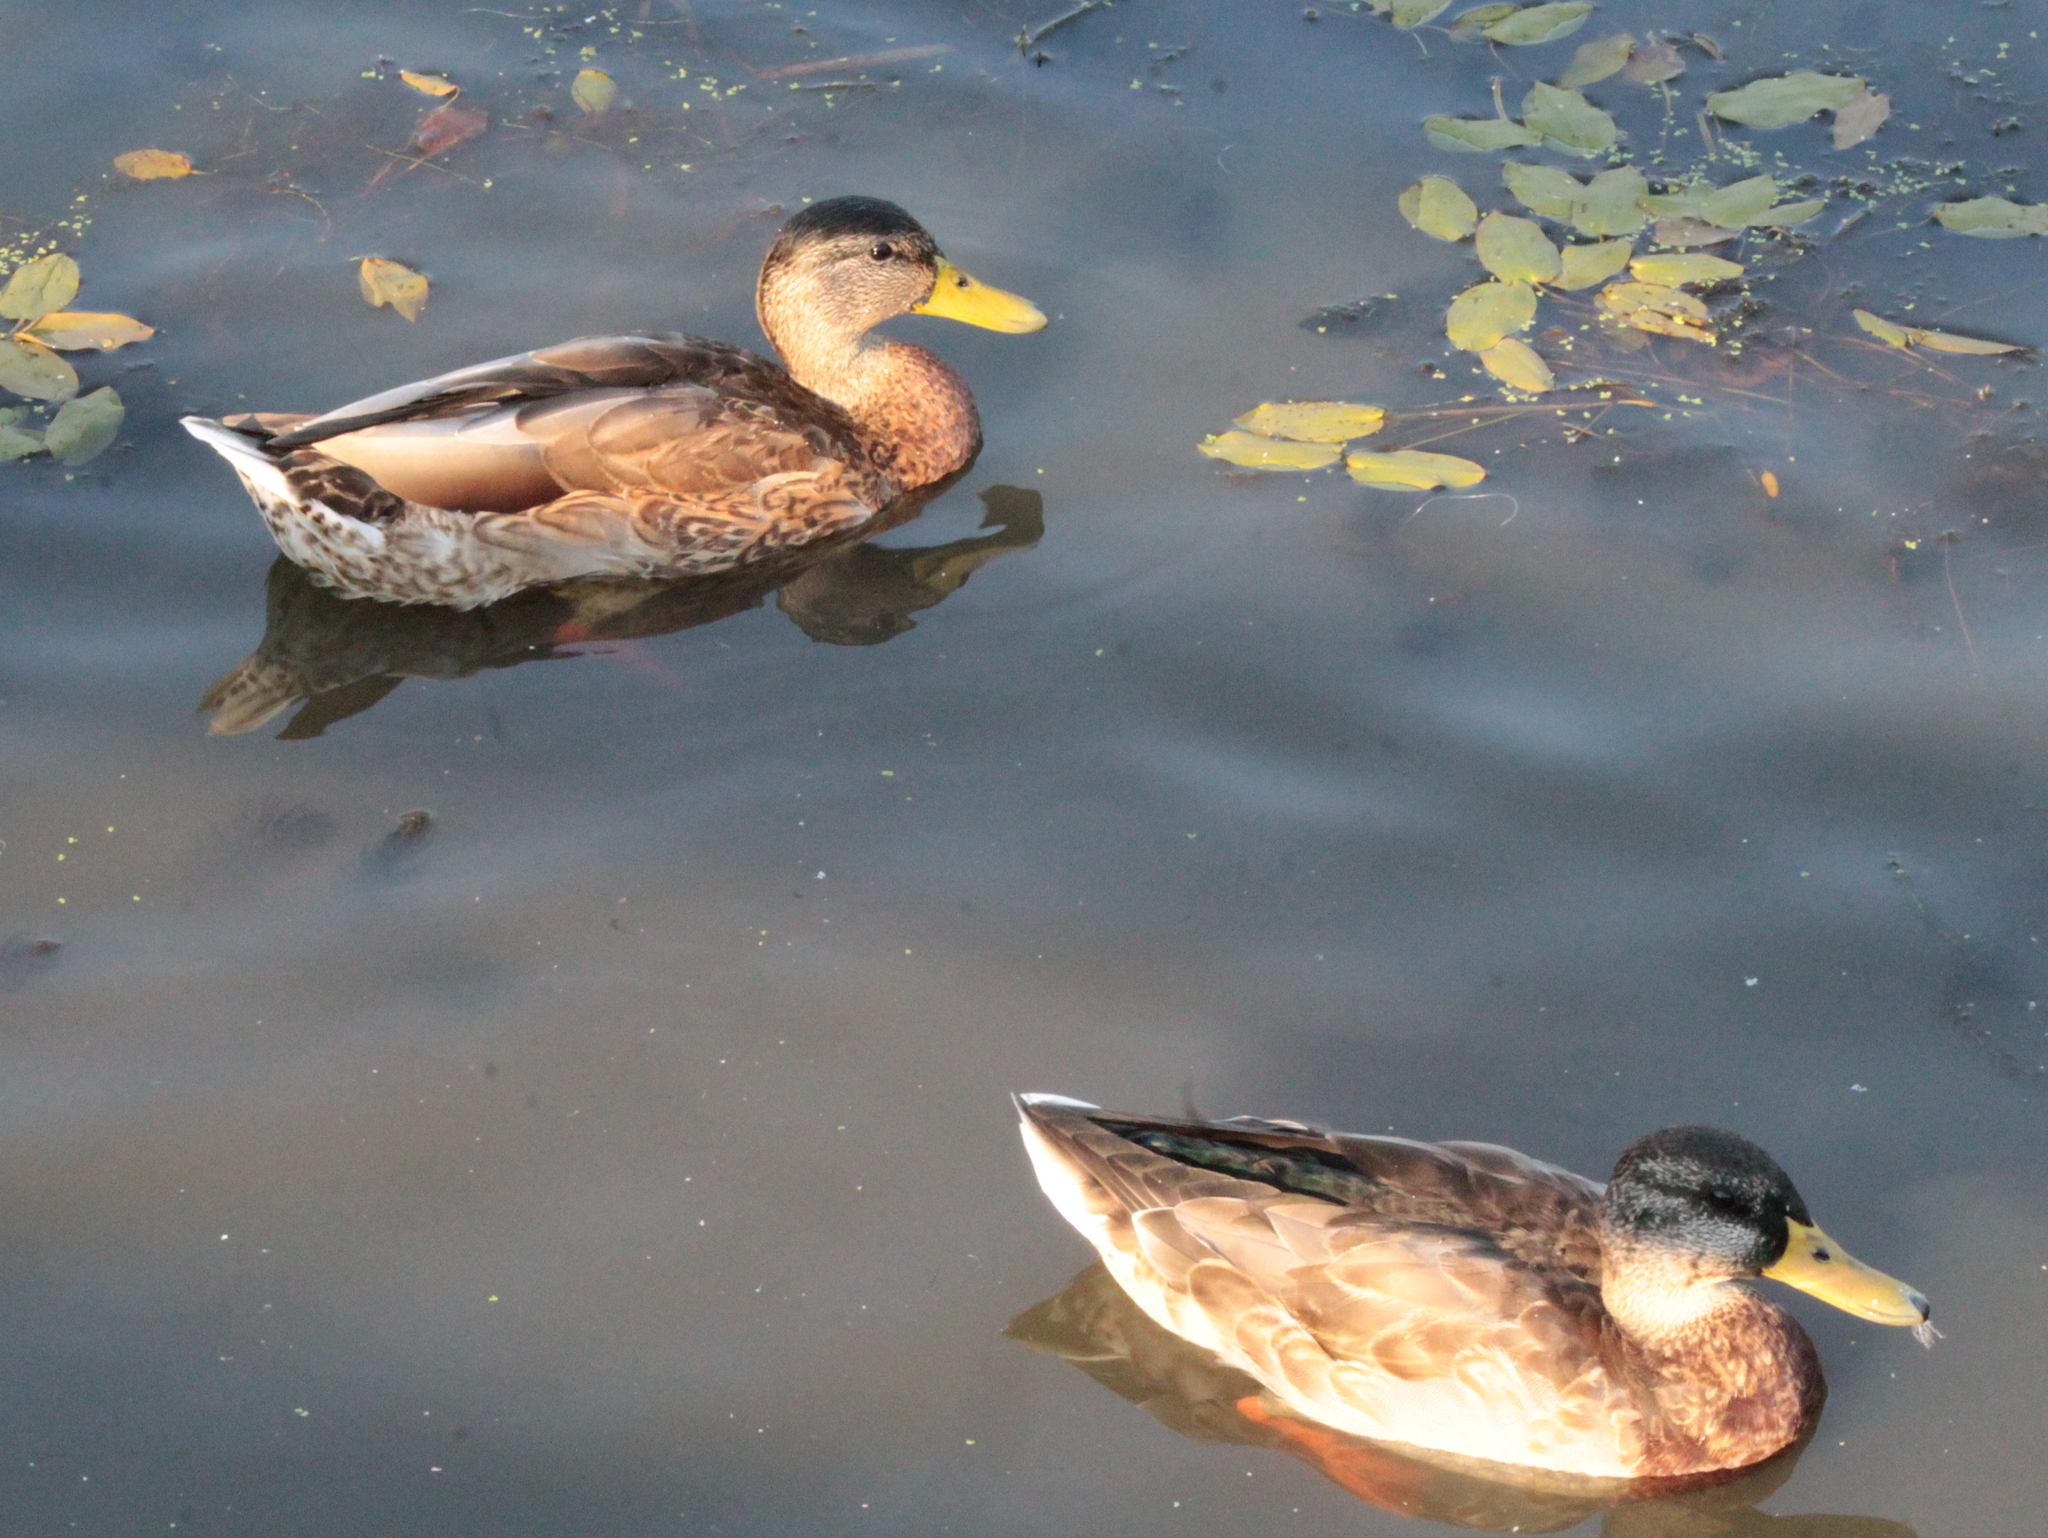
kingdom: Animalia
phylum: Chordata
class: Aves
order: Anseriformes
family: Anatidae
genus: Anas
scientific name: Anas platyrhynchos
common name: Mallard
